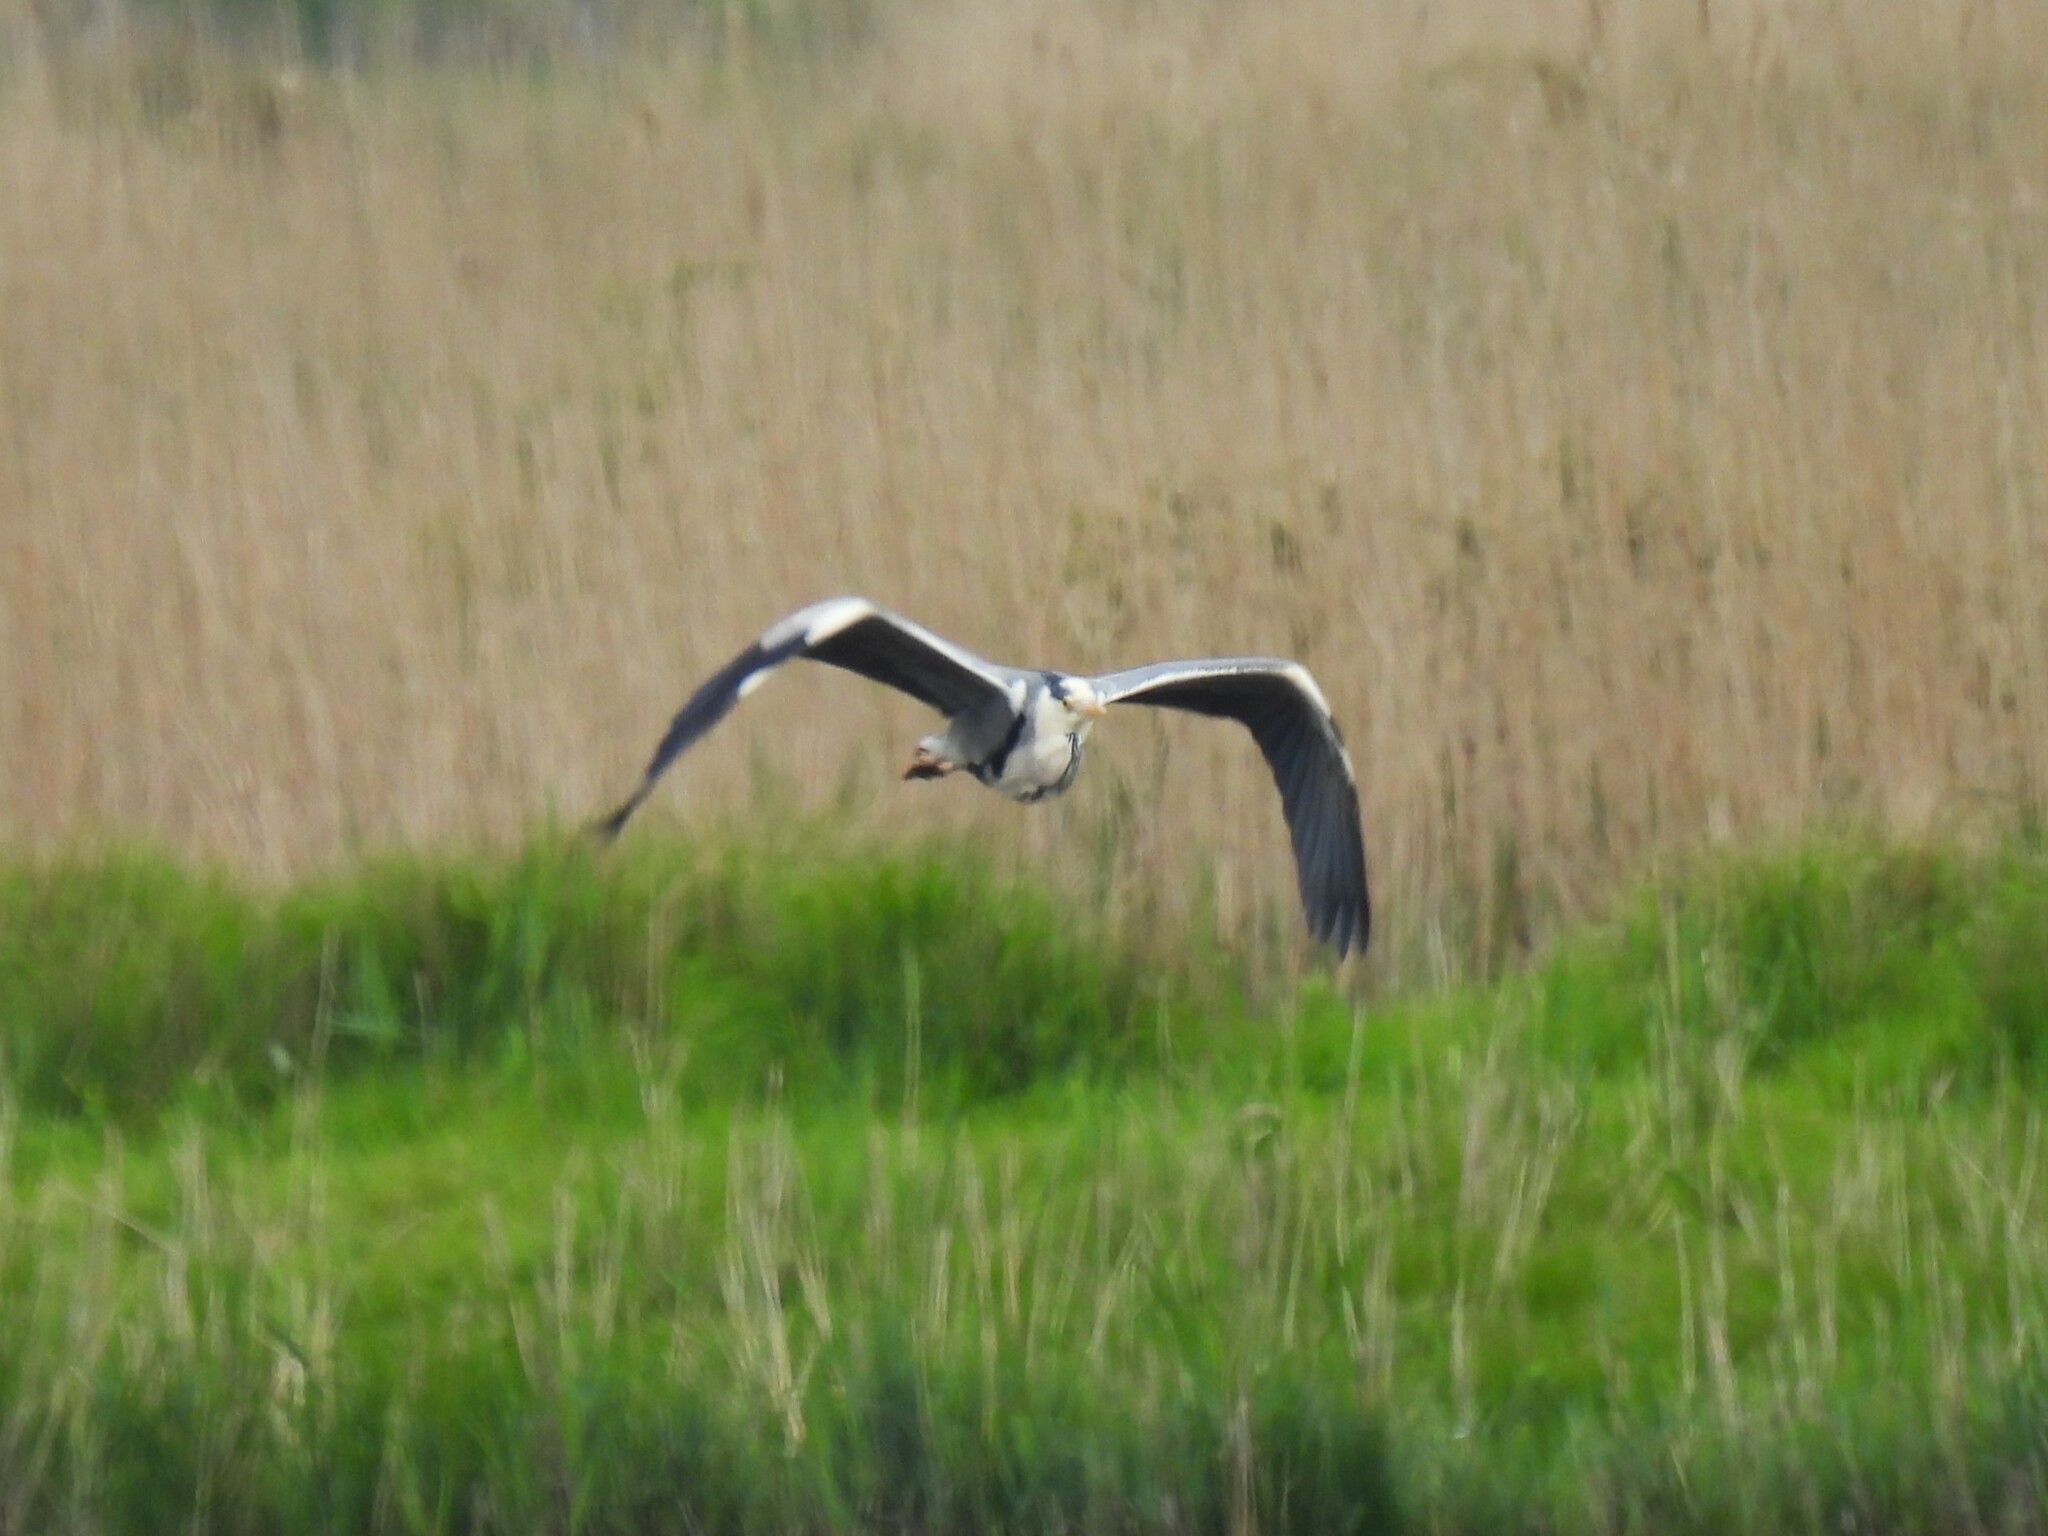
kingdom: Animalia
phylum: Chordata
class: Aves
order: Pelecaniformes
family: Ardeidae
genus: Ardea
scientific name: Ardea cinerea
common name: Grey heron
